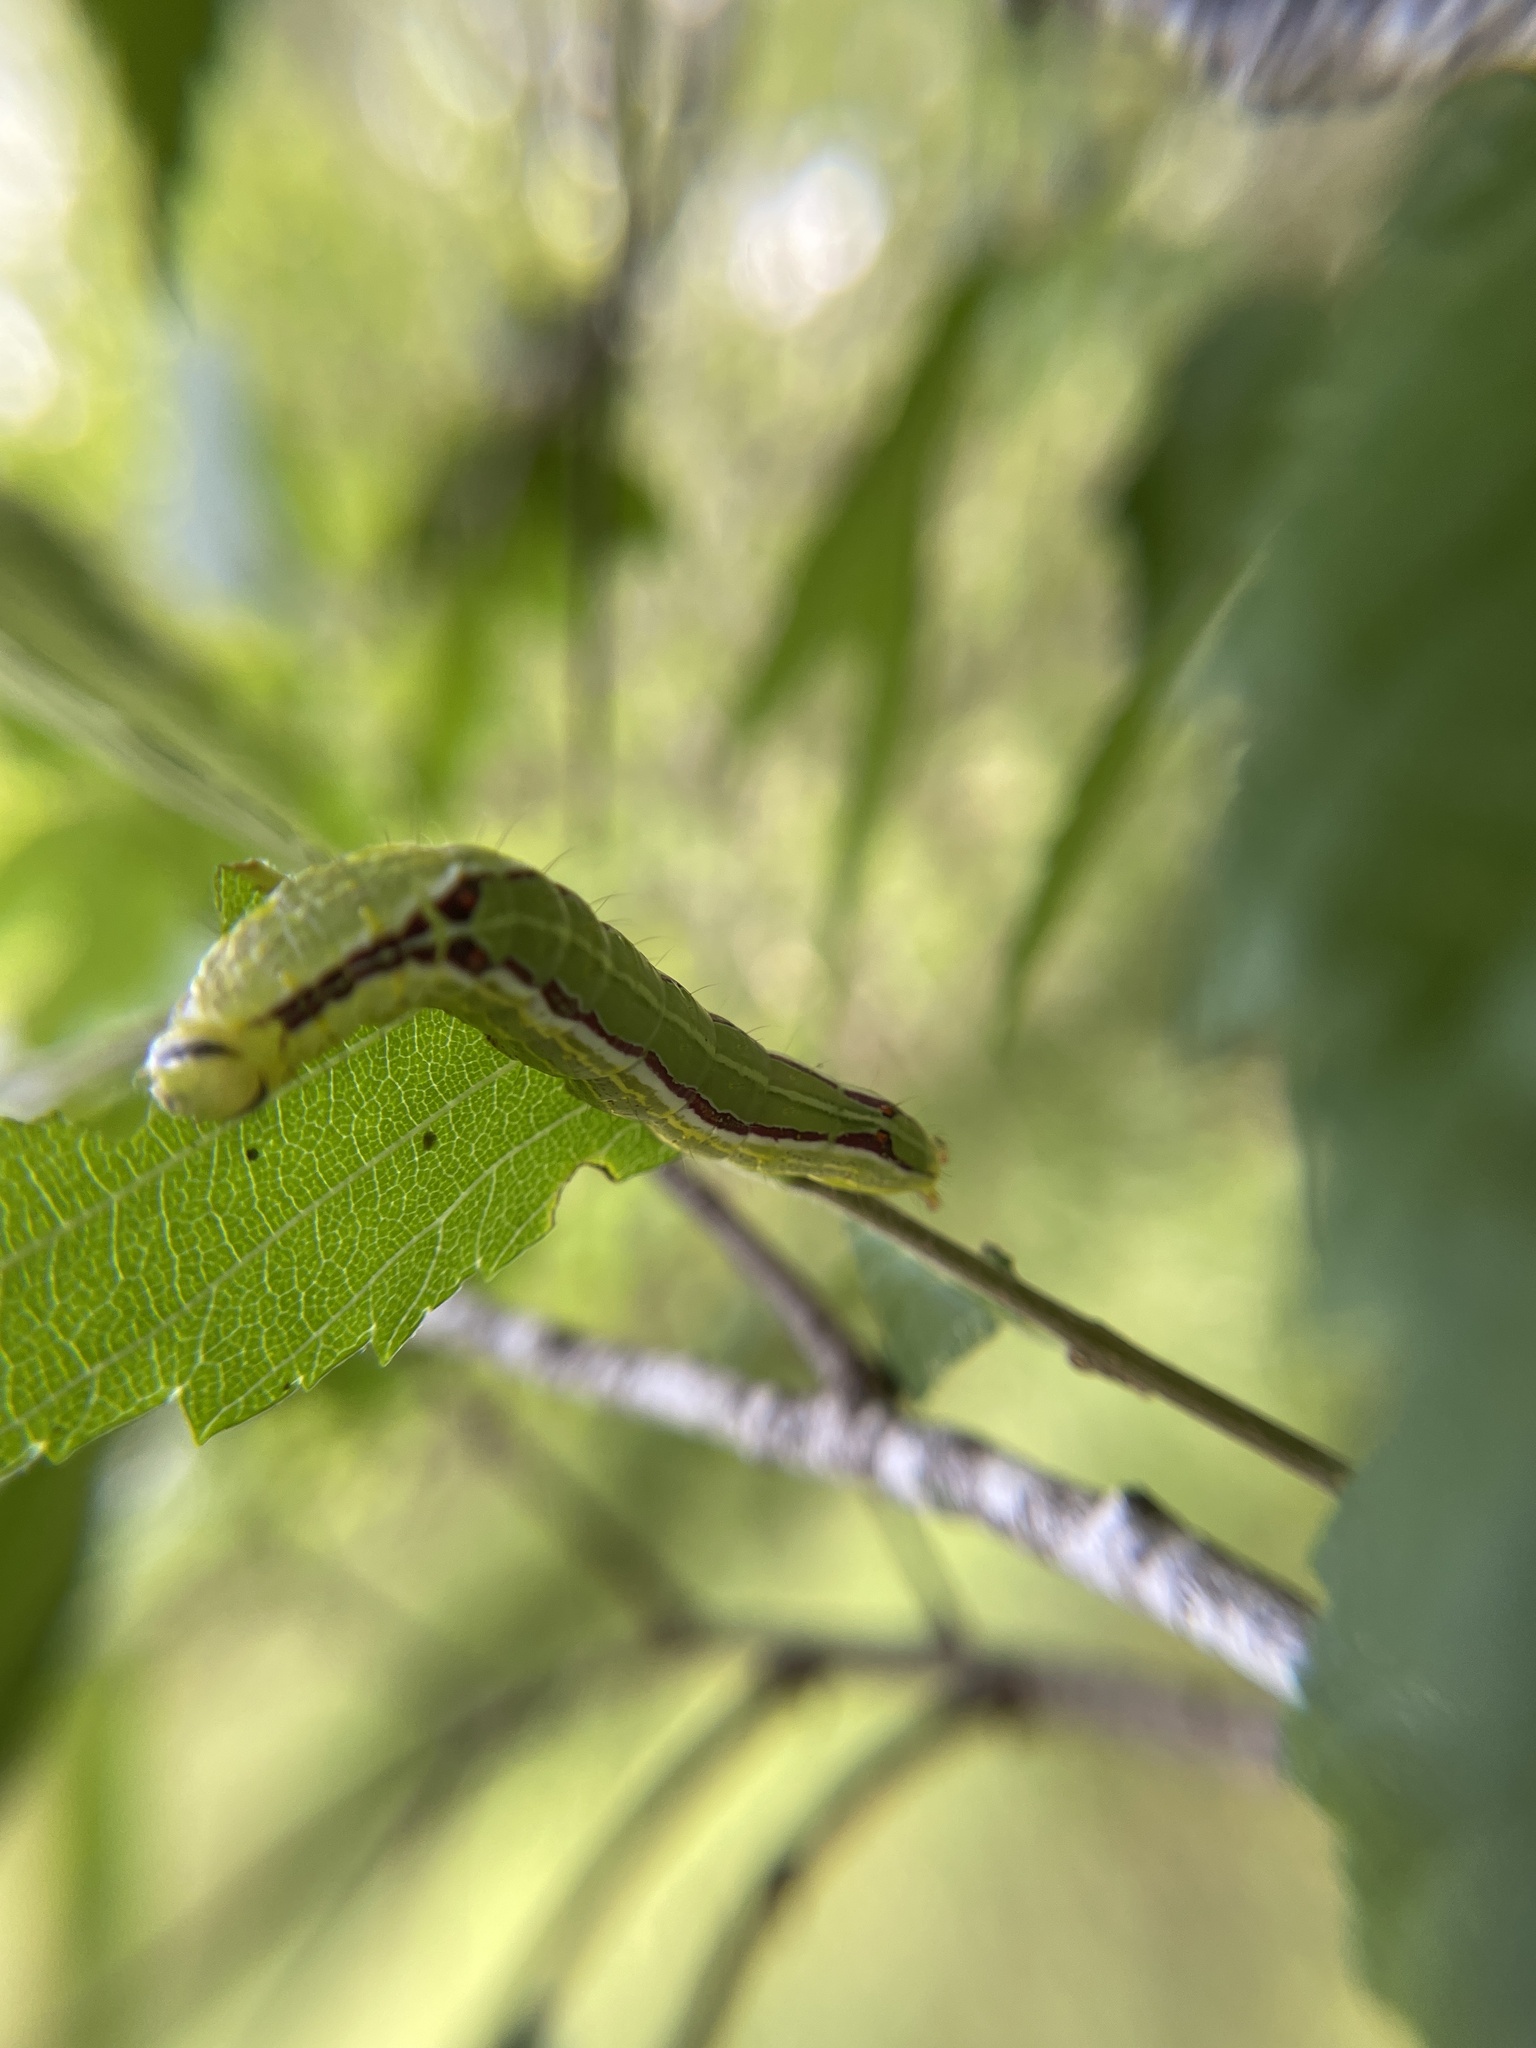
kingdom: Animalia
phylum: Arthropoda
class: Insecta
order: Lepidoptera
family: Notodontidae
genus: Lochmaeus
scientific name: Lochmaeus bilineata
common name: Double-lined prominent
